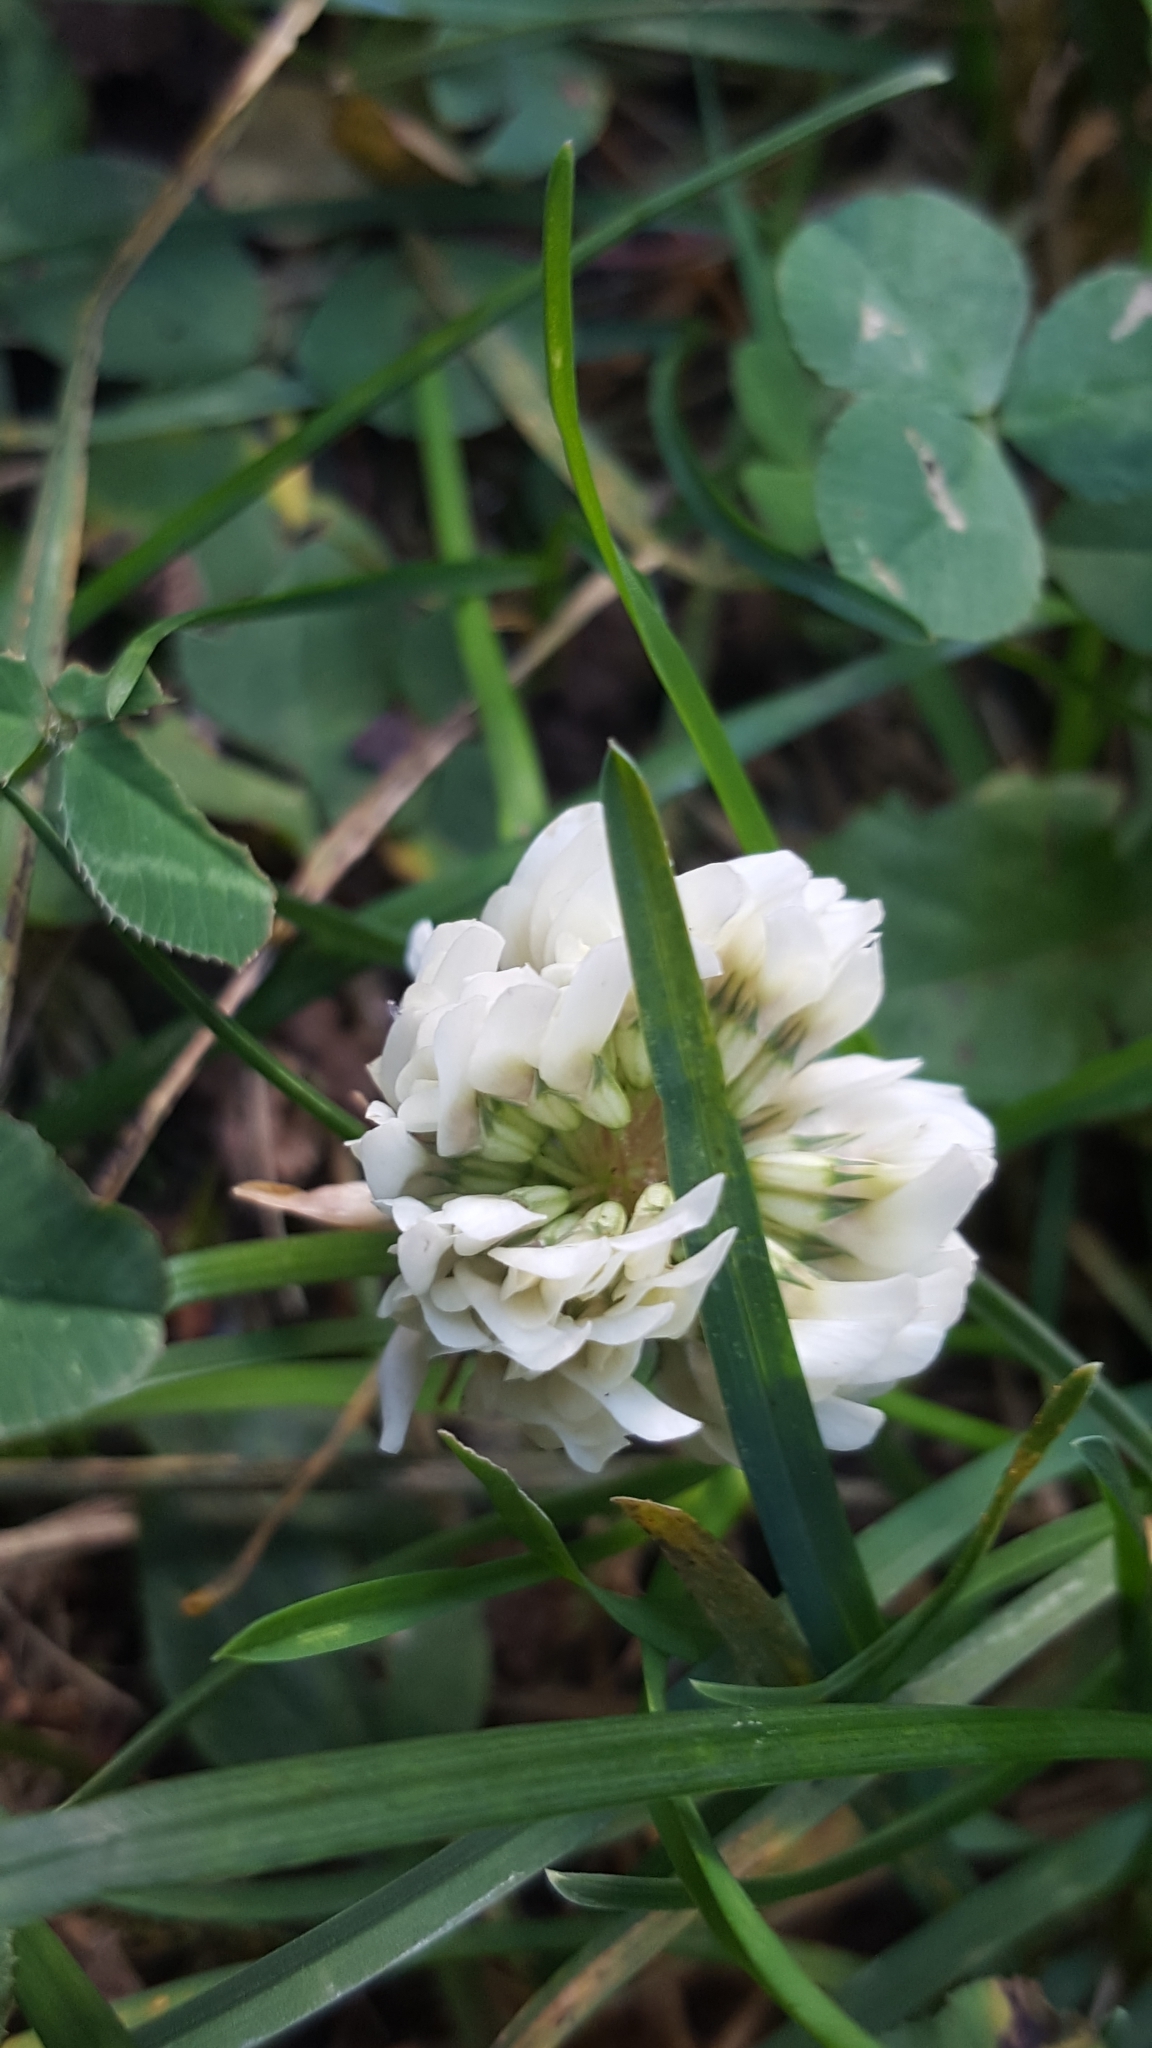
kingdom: Plantae
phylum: Tracheophyta
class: Magnoliopsida
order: Fabales
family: Fabaceae
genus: Trifolium
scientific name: Trifolium repens
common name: White clover
